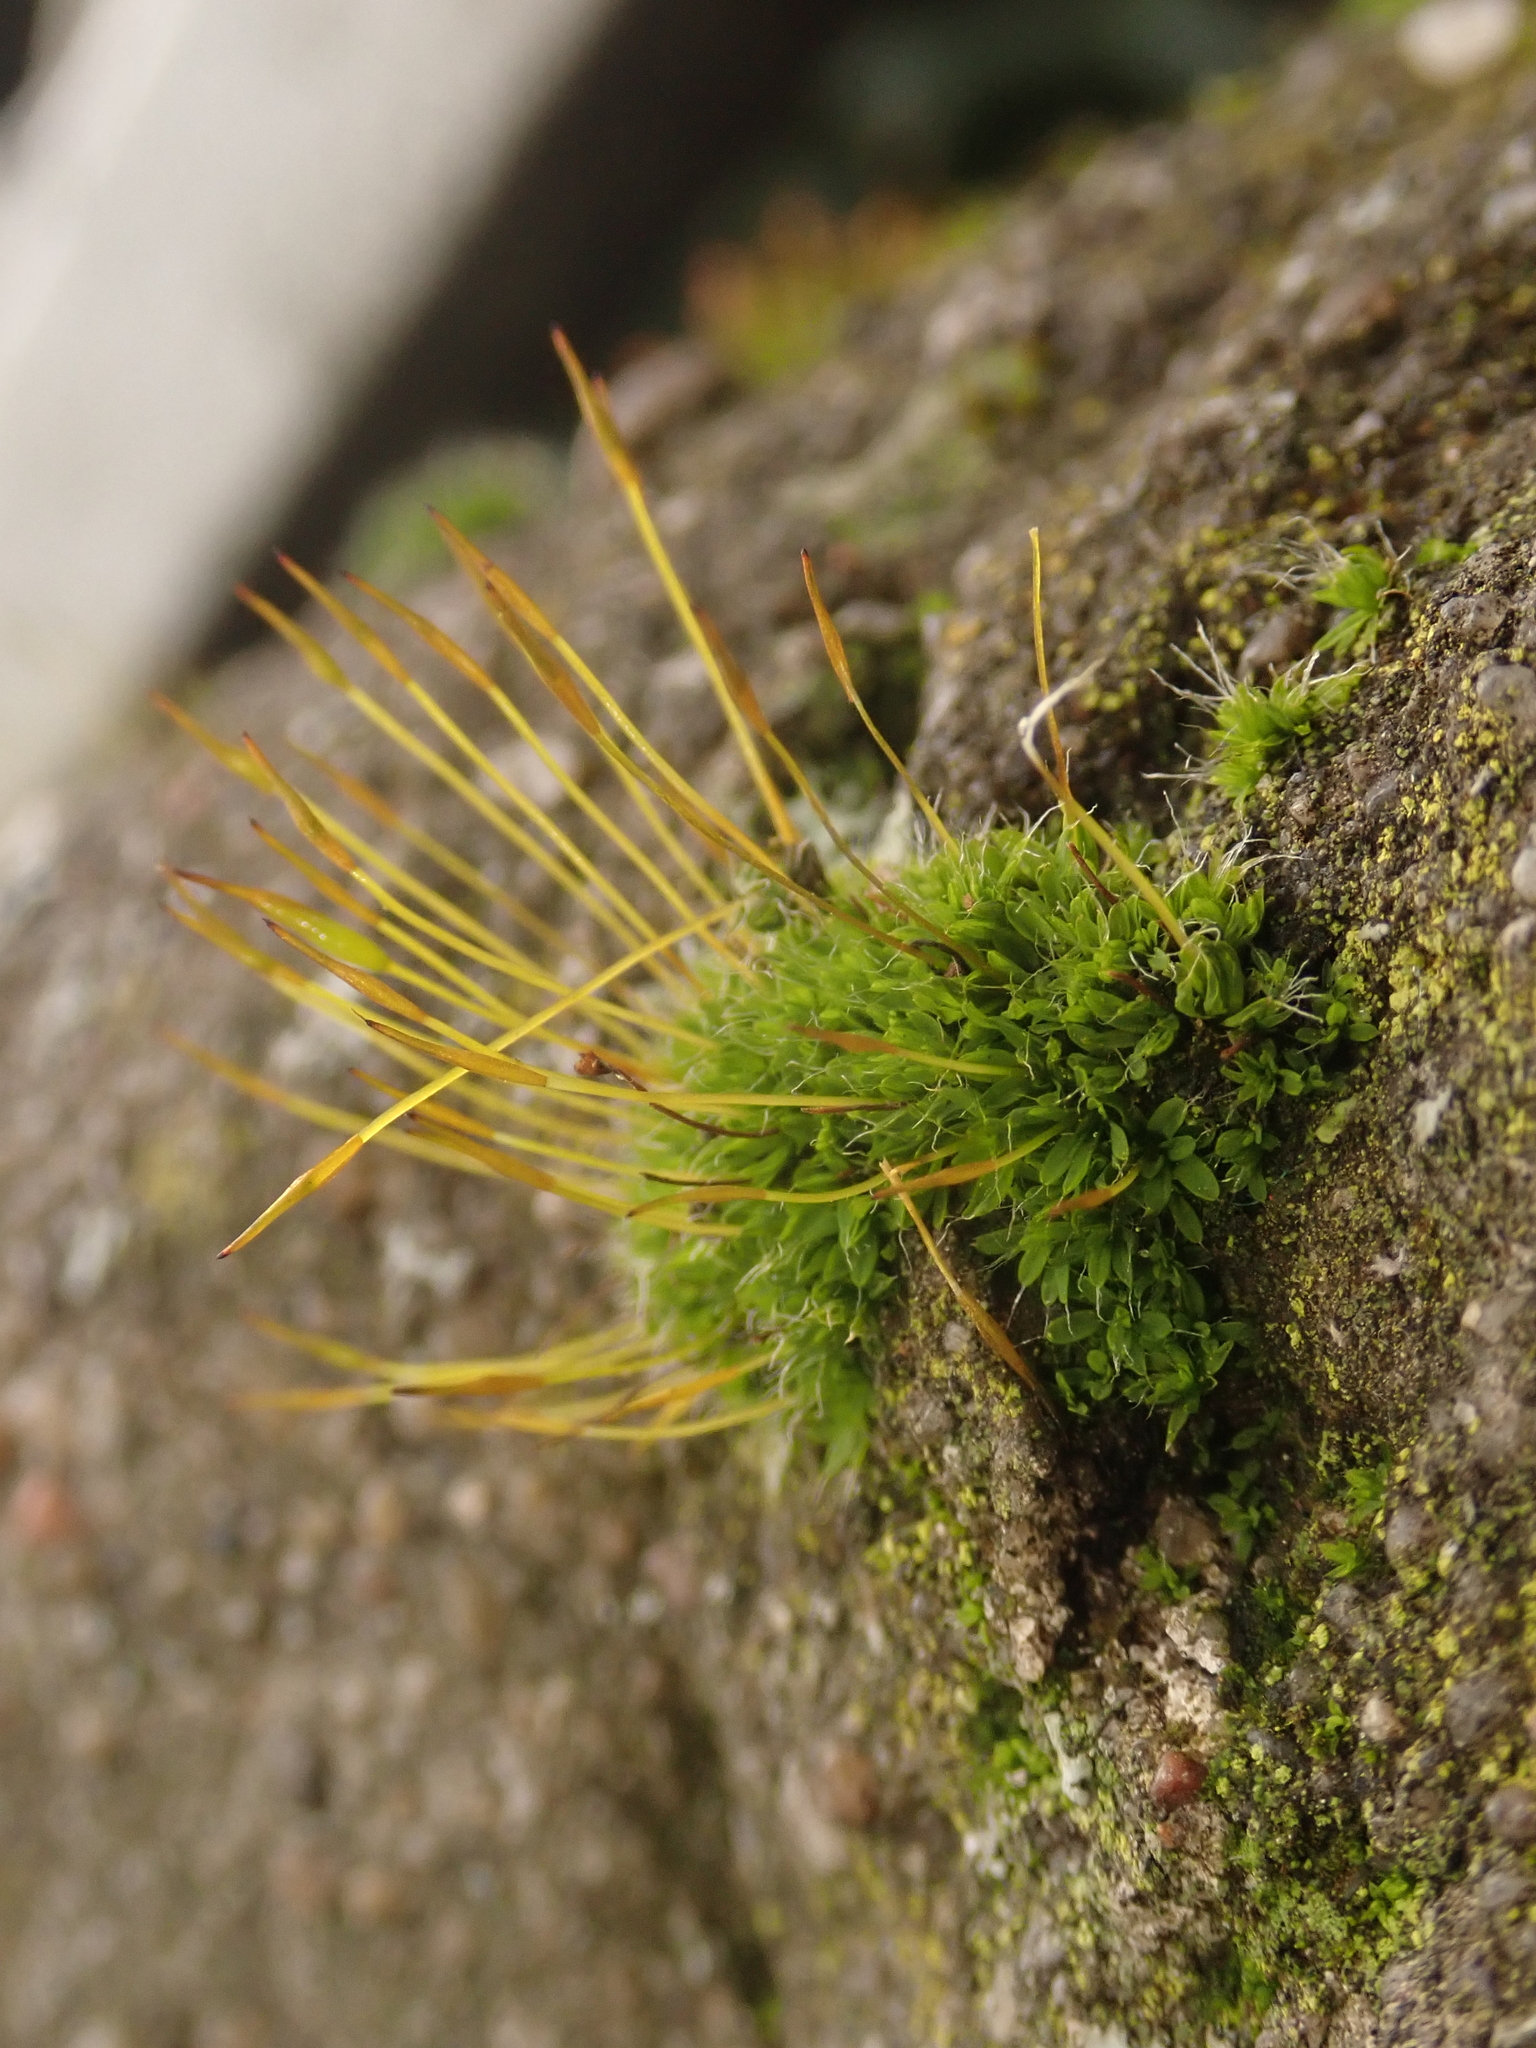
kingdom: Plantae
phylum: Bryophyta
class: Bryopsida
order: Pottiales
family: Pottiaceae
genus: Tortula
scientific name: Tortula muralis
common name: Wall screw-moss
